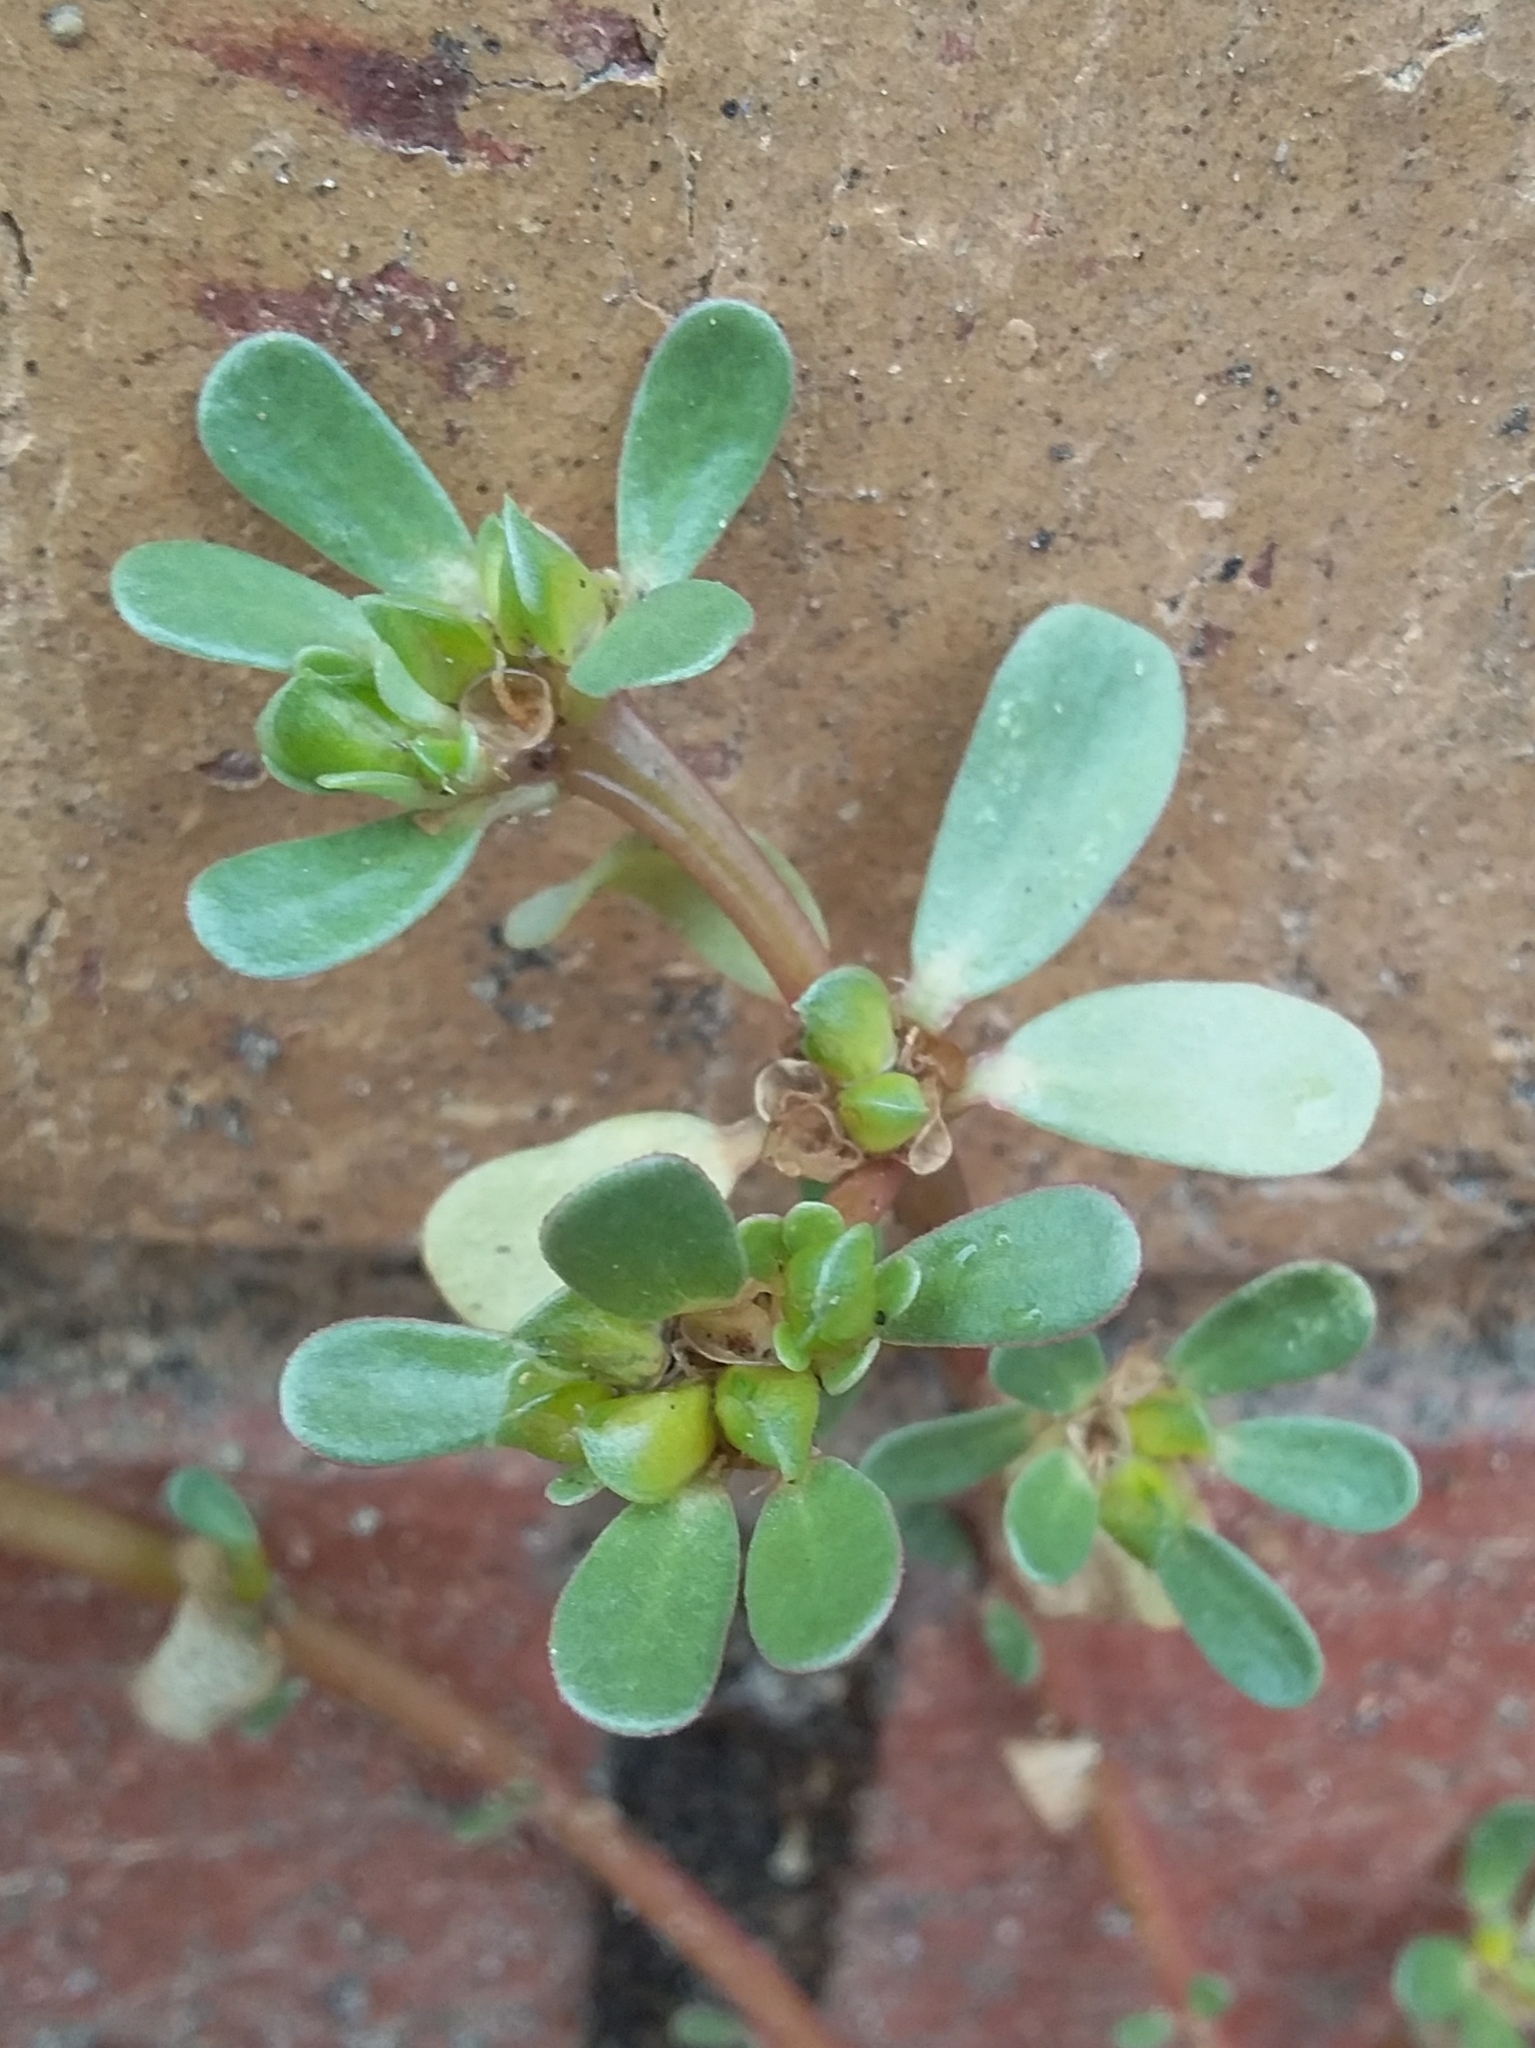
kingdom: Plantae
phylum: Tracheophyta
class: Magnoliopsida
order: Caryophyllales
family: Portulacaceae
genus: Portulaca
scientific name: Portulaca oleracea
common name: Common purslane
